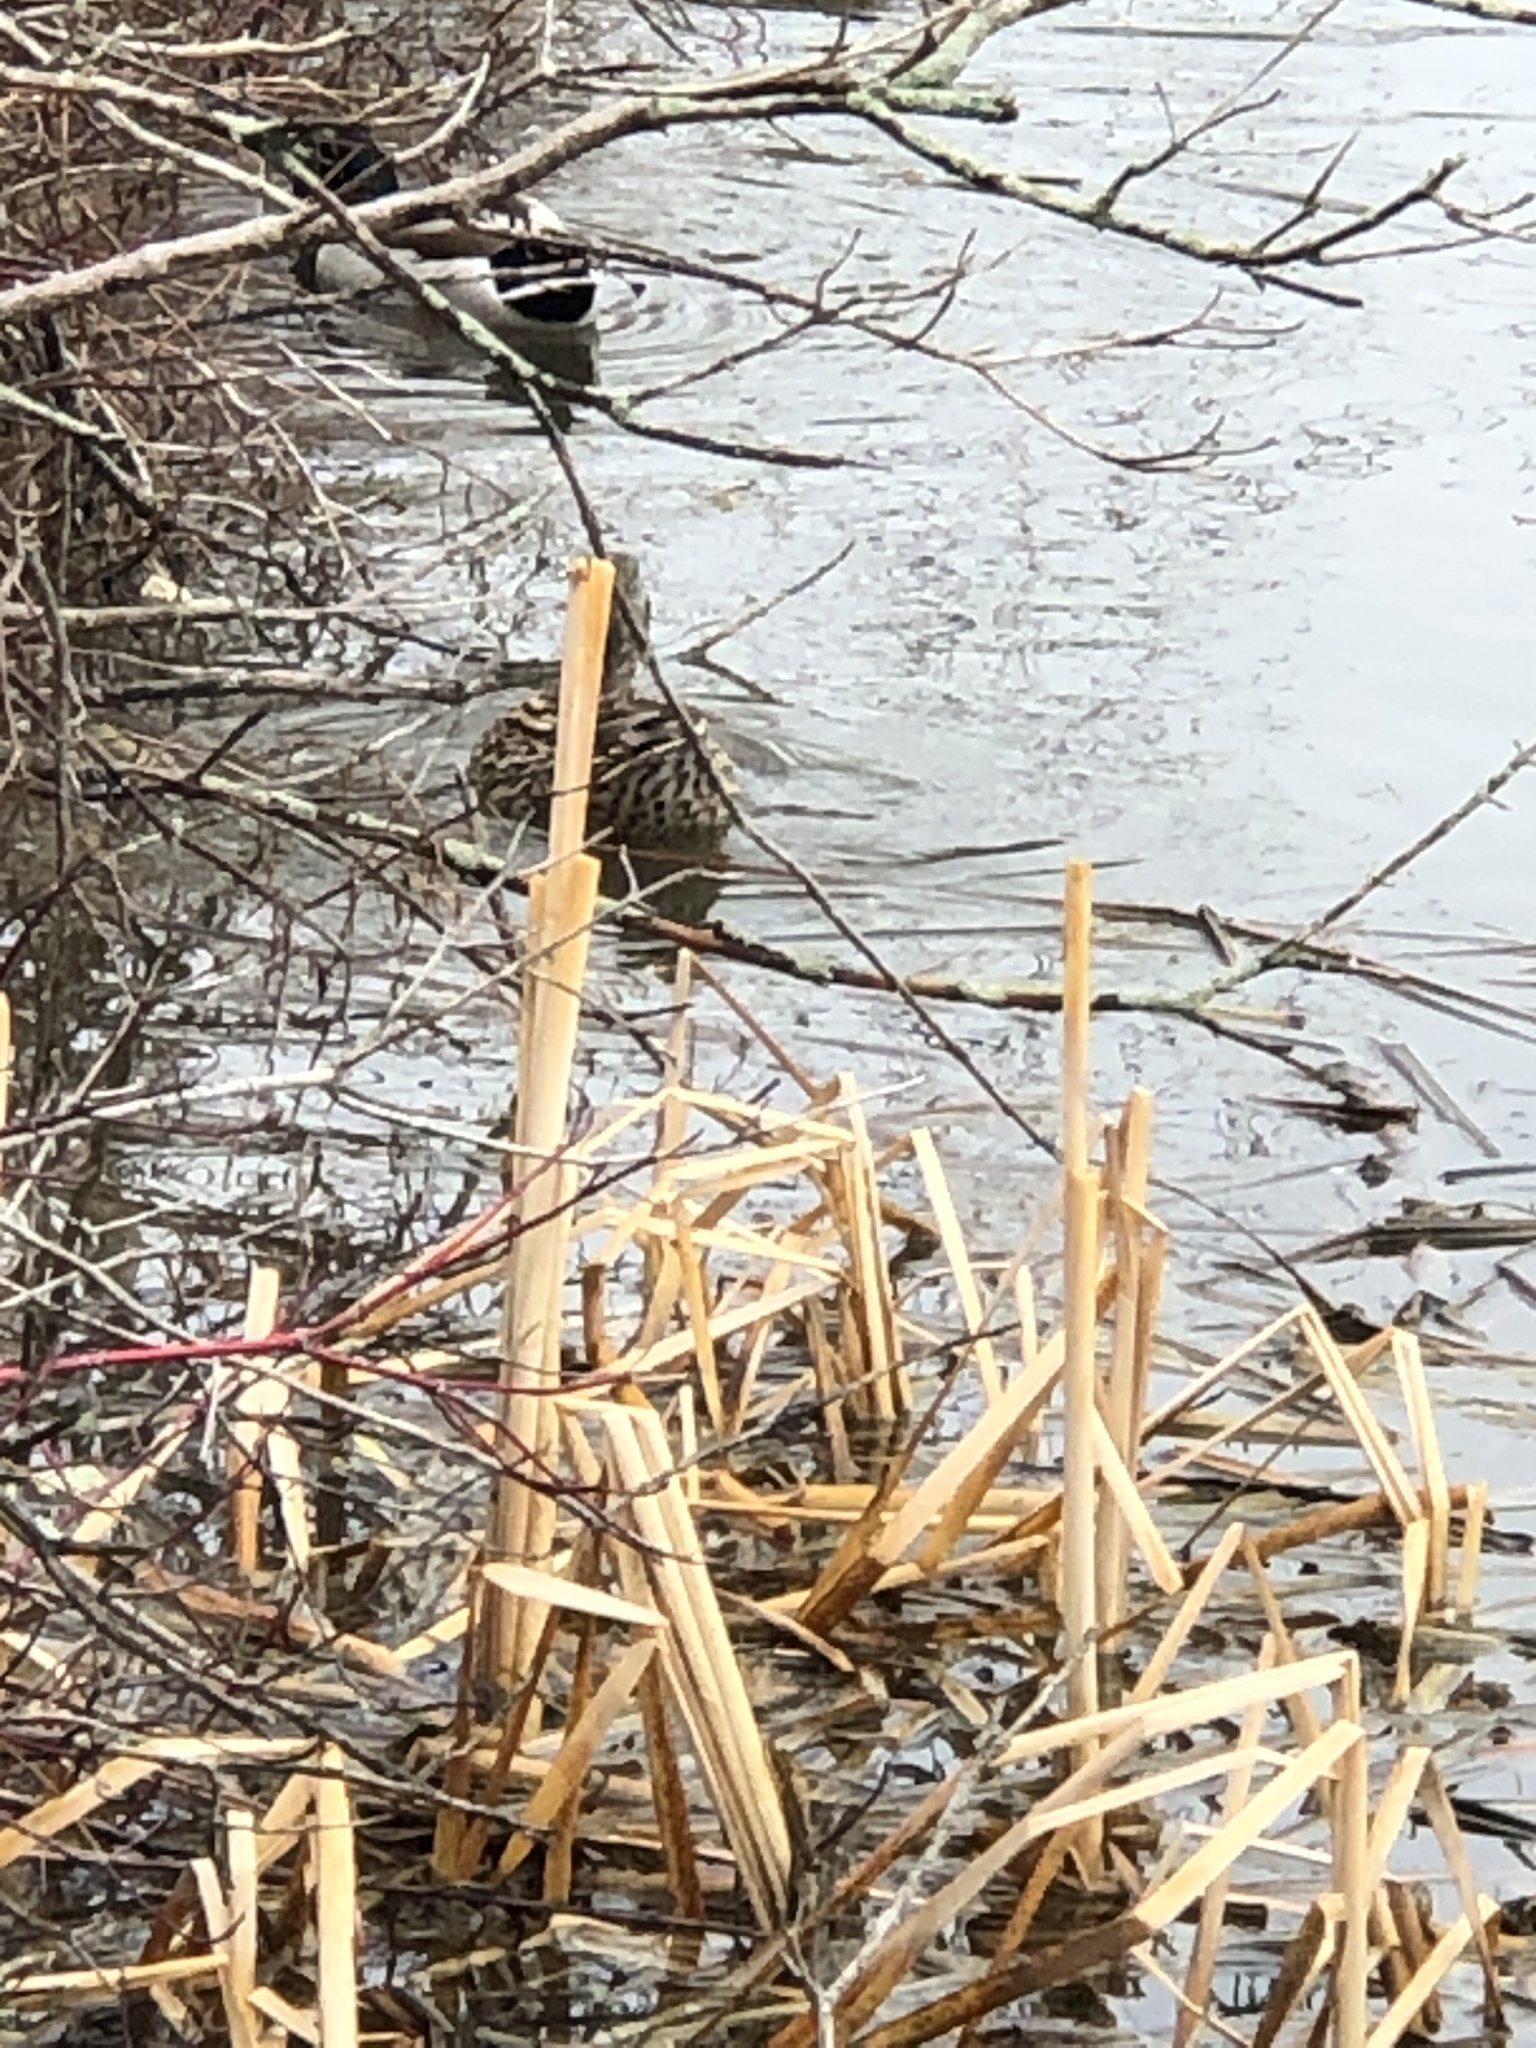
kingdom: Animalia
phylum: Chordata
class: Aves
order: Anseriformes
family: Anatidae
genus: Anas
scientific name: Anas platyrhynchos
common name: Mallard
